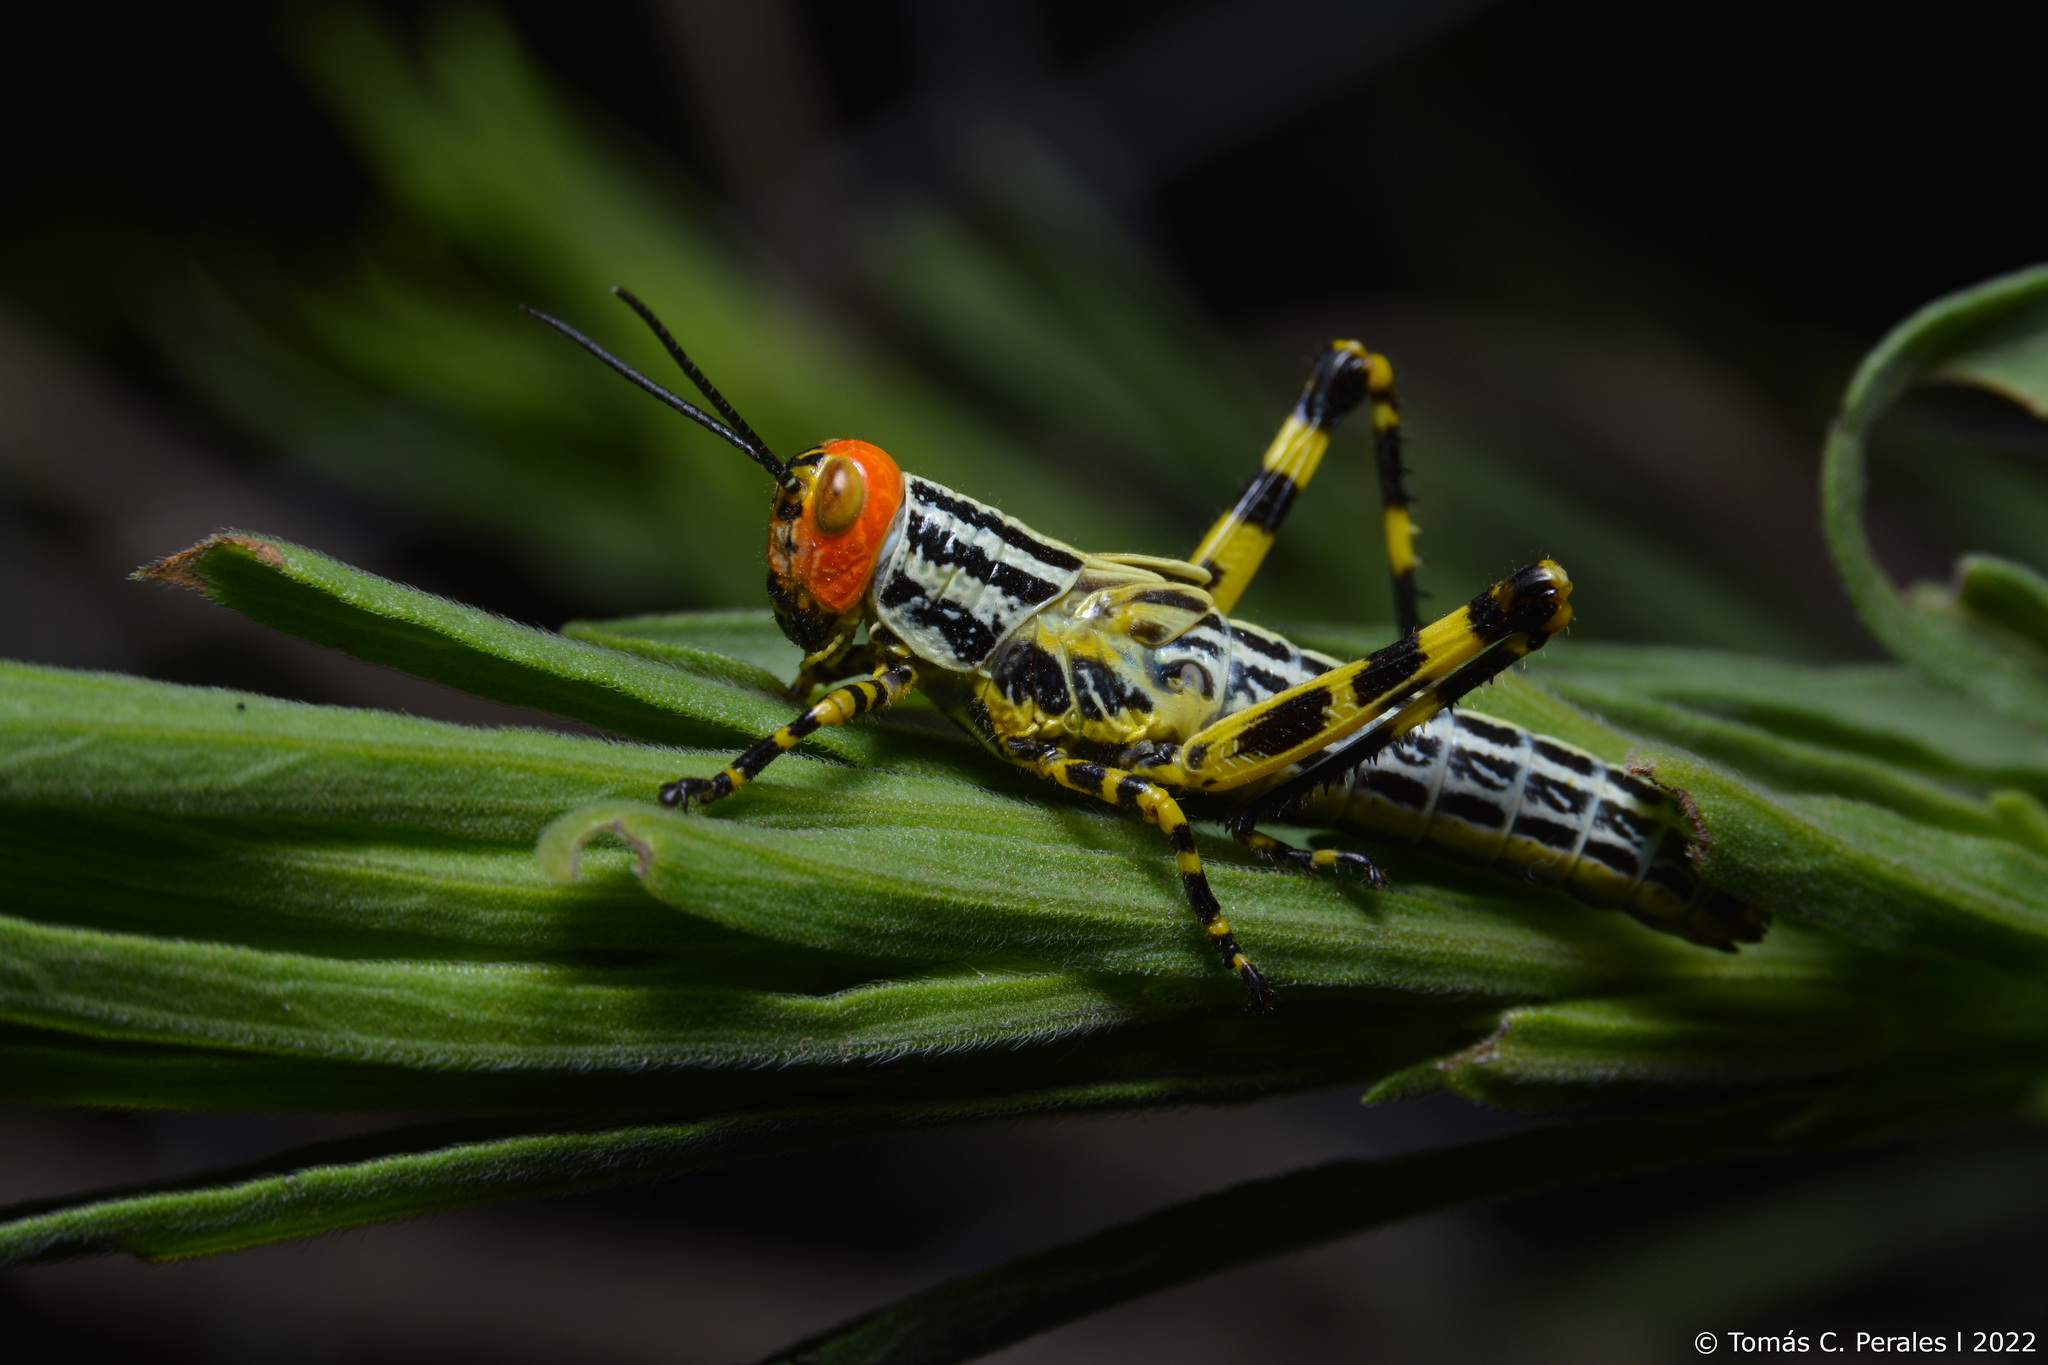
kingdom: Animalia
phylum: Arthropoda
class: Insecta
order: Orthoptera
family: Romaleidae
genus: Zoniopoda
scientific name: Zoniopoda tarsata
